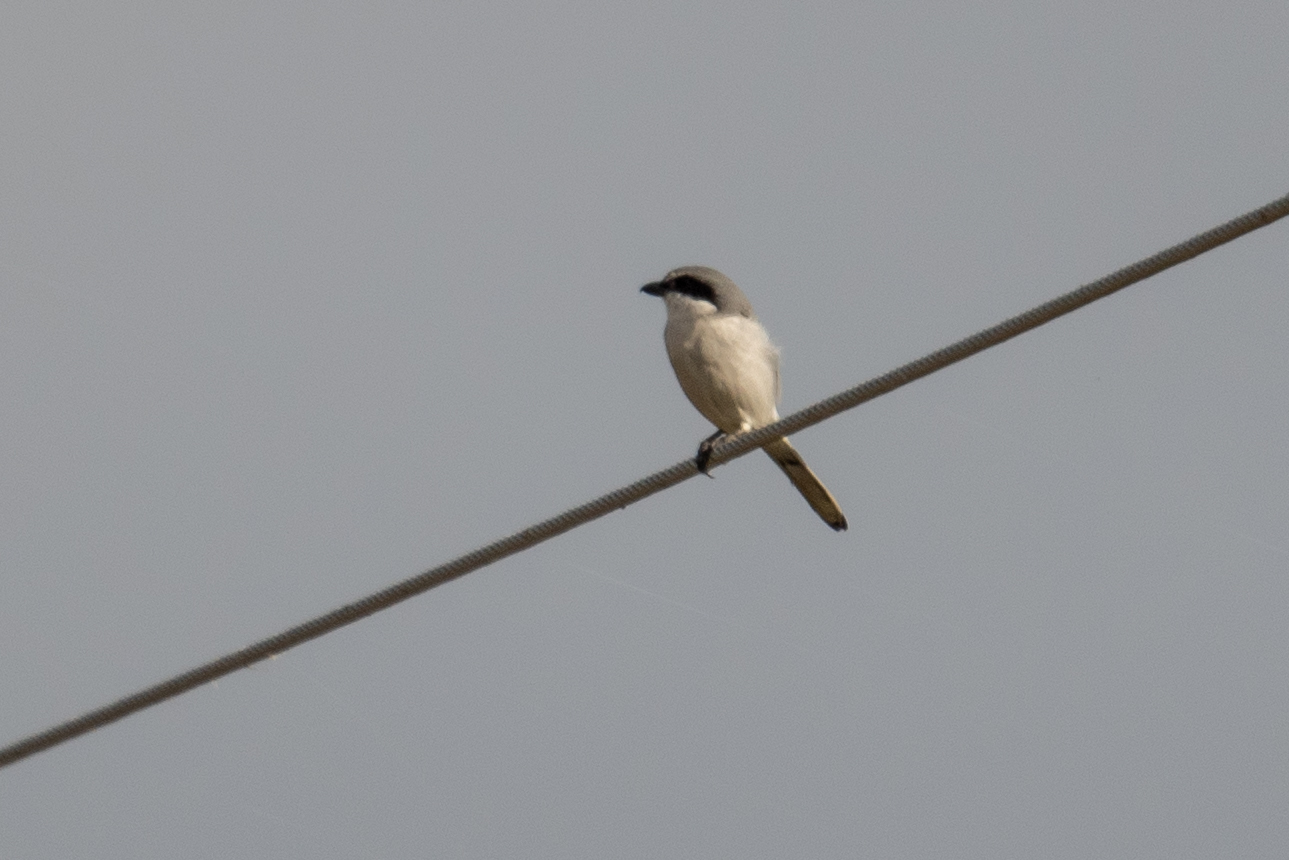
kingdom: Animalia
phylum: Chordata
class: Aves
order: Passeriformes
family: Laniidae
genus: Lanius
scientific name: Lanius ludovicianus
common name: Loggerhead shrike
